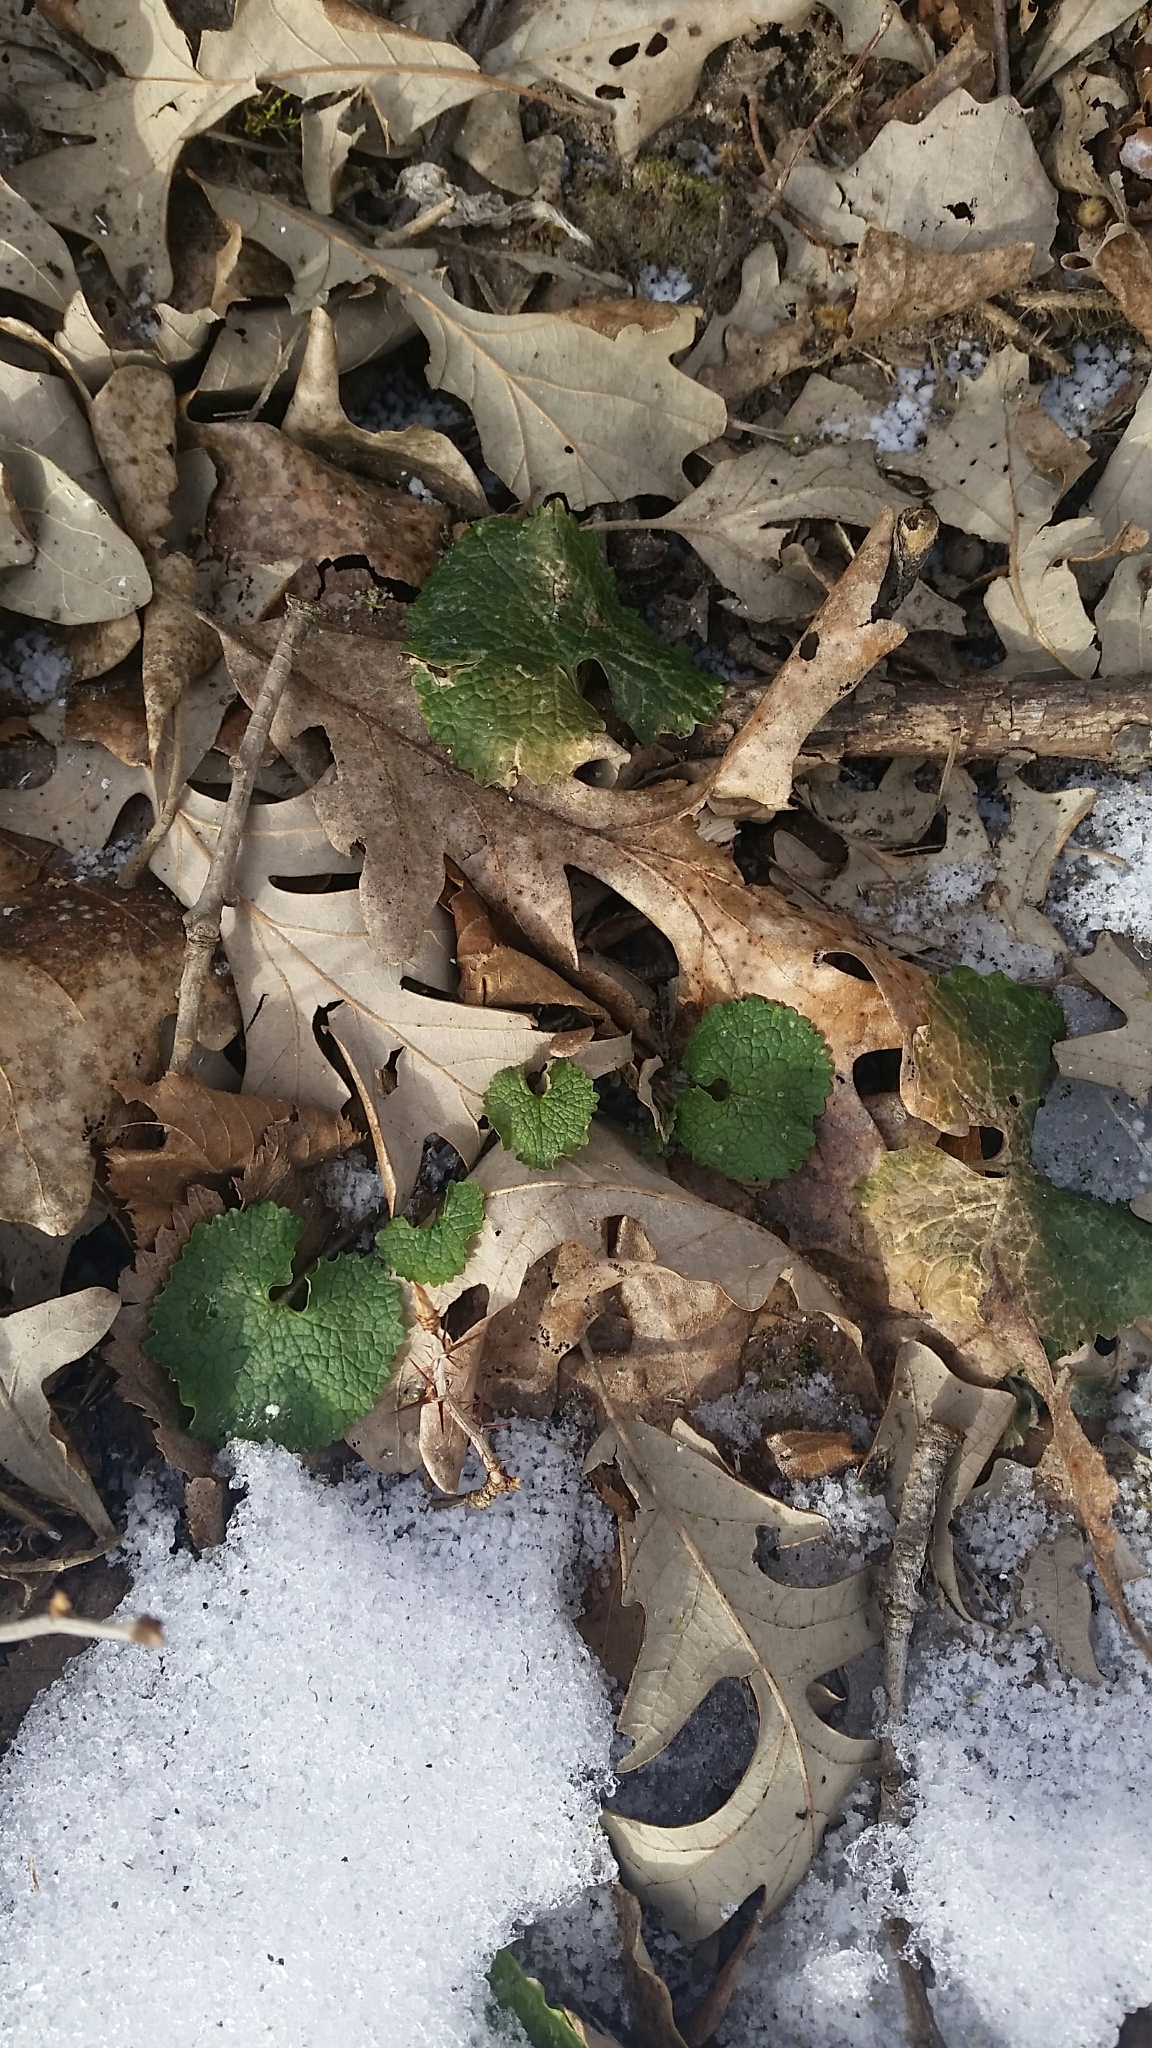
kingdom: Plantae
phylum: Tracheophyta
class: Magnoliopsida
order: Brassicales
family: Brassicaceae
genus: Alliaria
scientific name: Alliaria petiolata
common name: Garlic mustard
